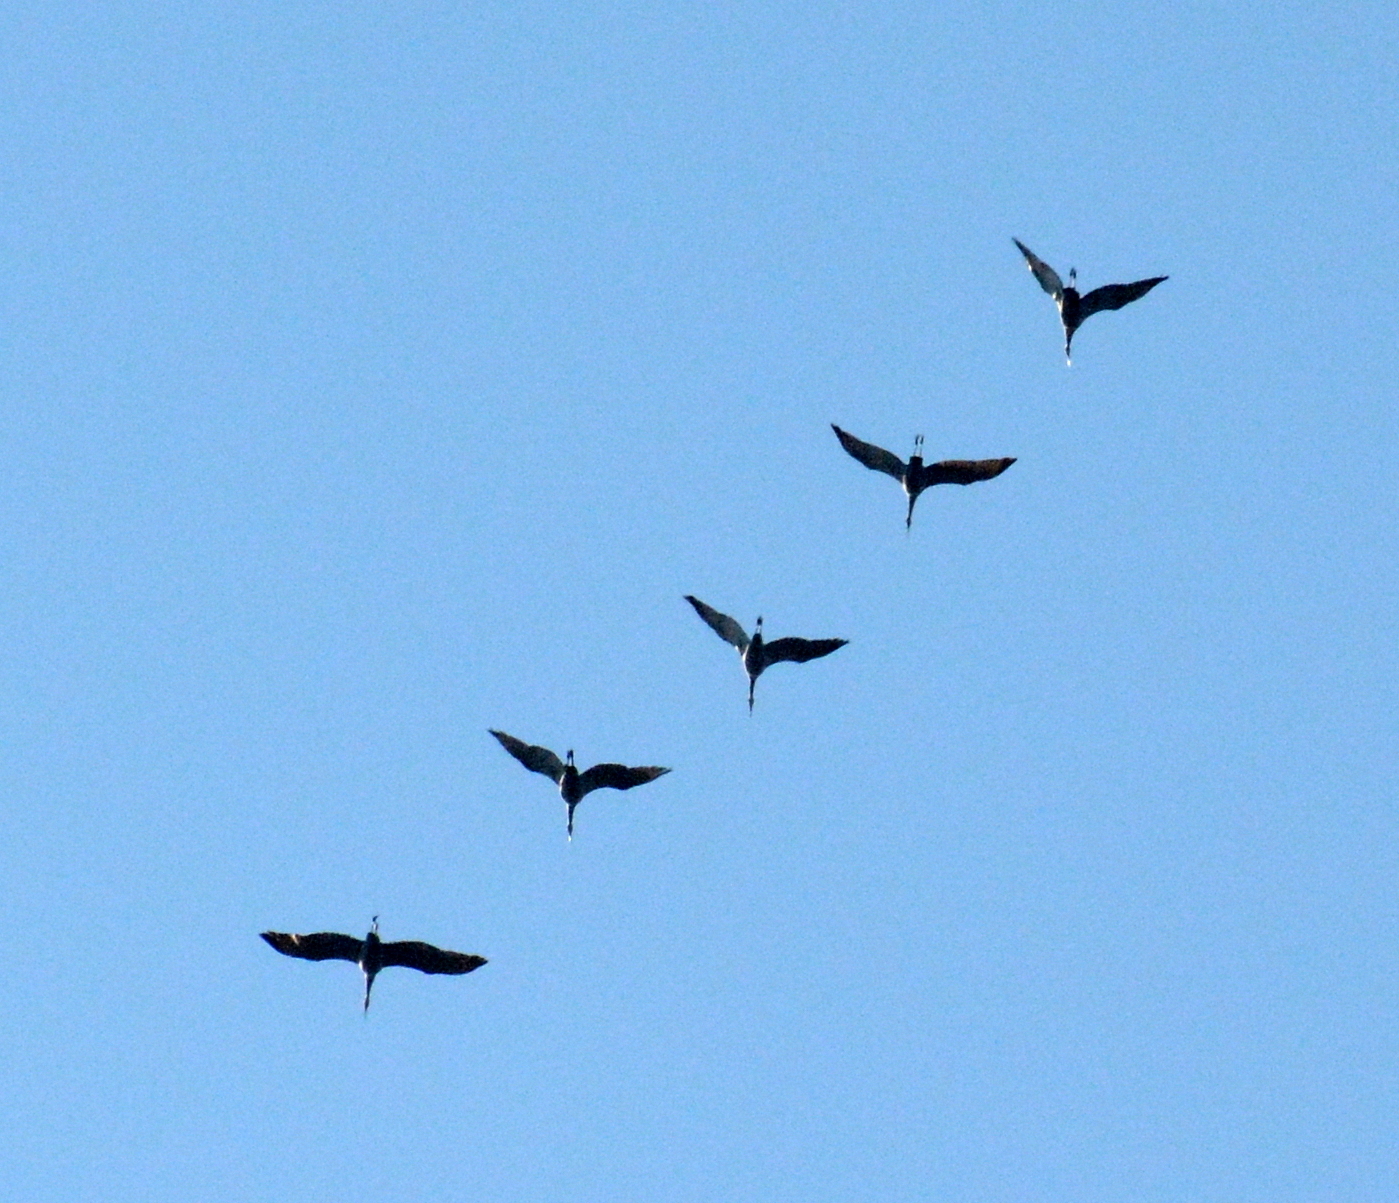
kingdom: Animalia
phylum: Chordata
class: Aves
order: Gruiformes
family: Gruidae
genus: Grus
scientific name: Grus canadensis
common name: Sandhill crane
